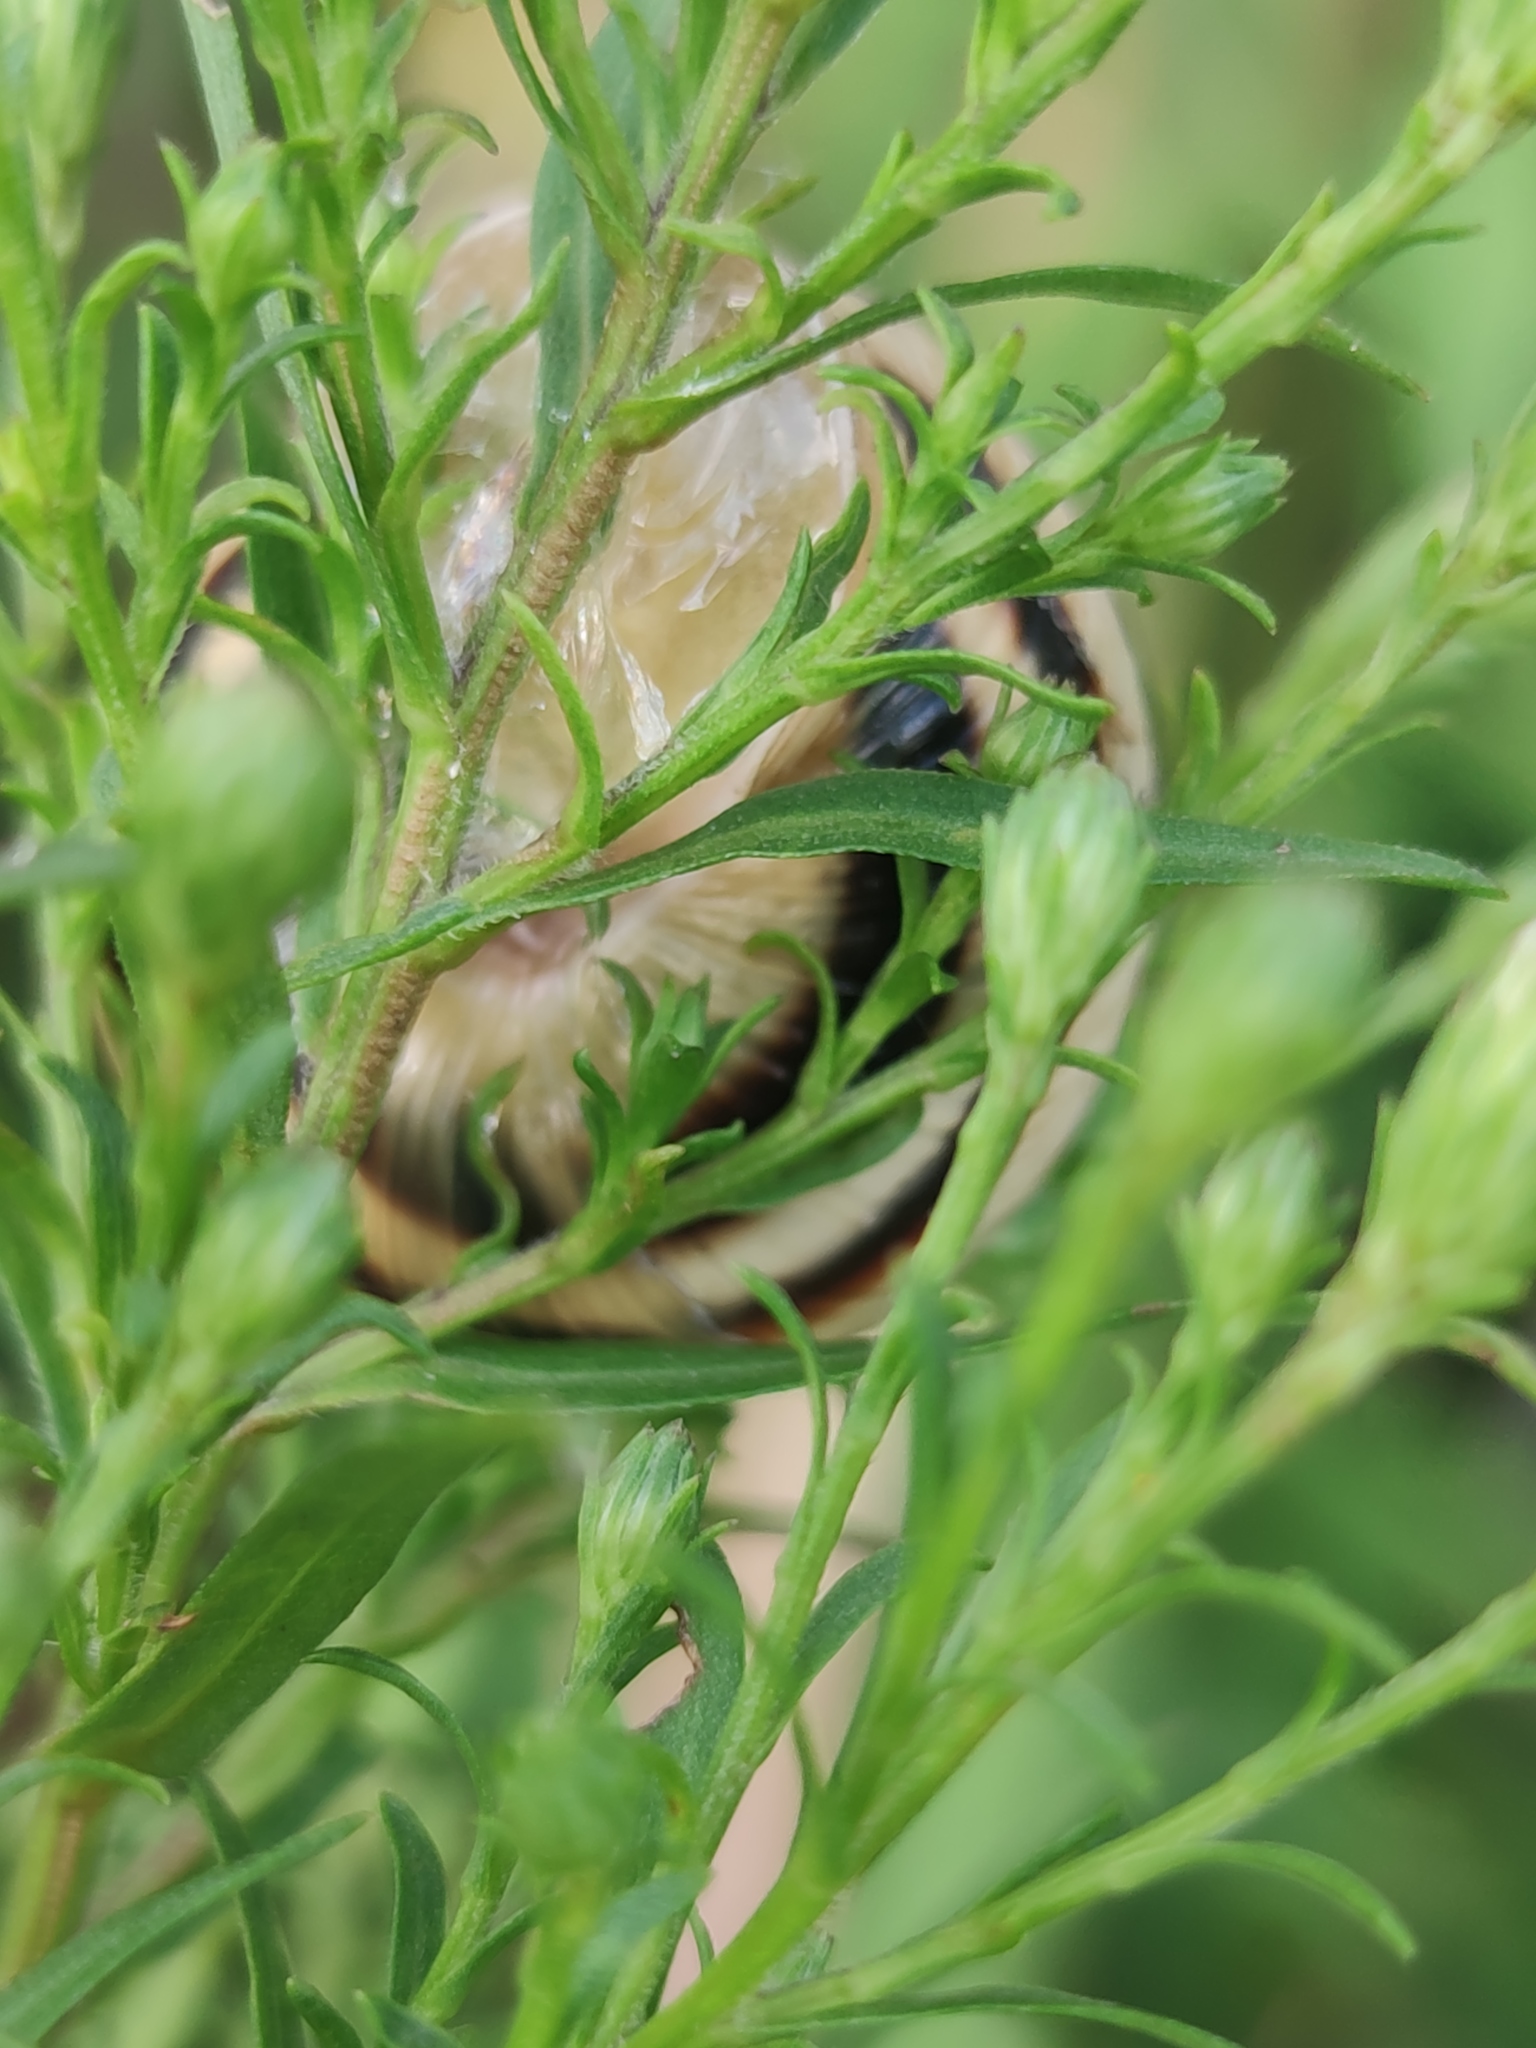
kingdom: Animalia
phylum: Mollusca
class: Gastropoda
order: Stylommatophora
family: Helicidae
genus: Caucasotachea
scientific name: Caucasotachea vindobonensis
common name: European helicid land snail
